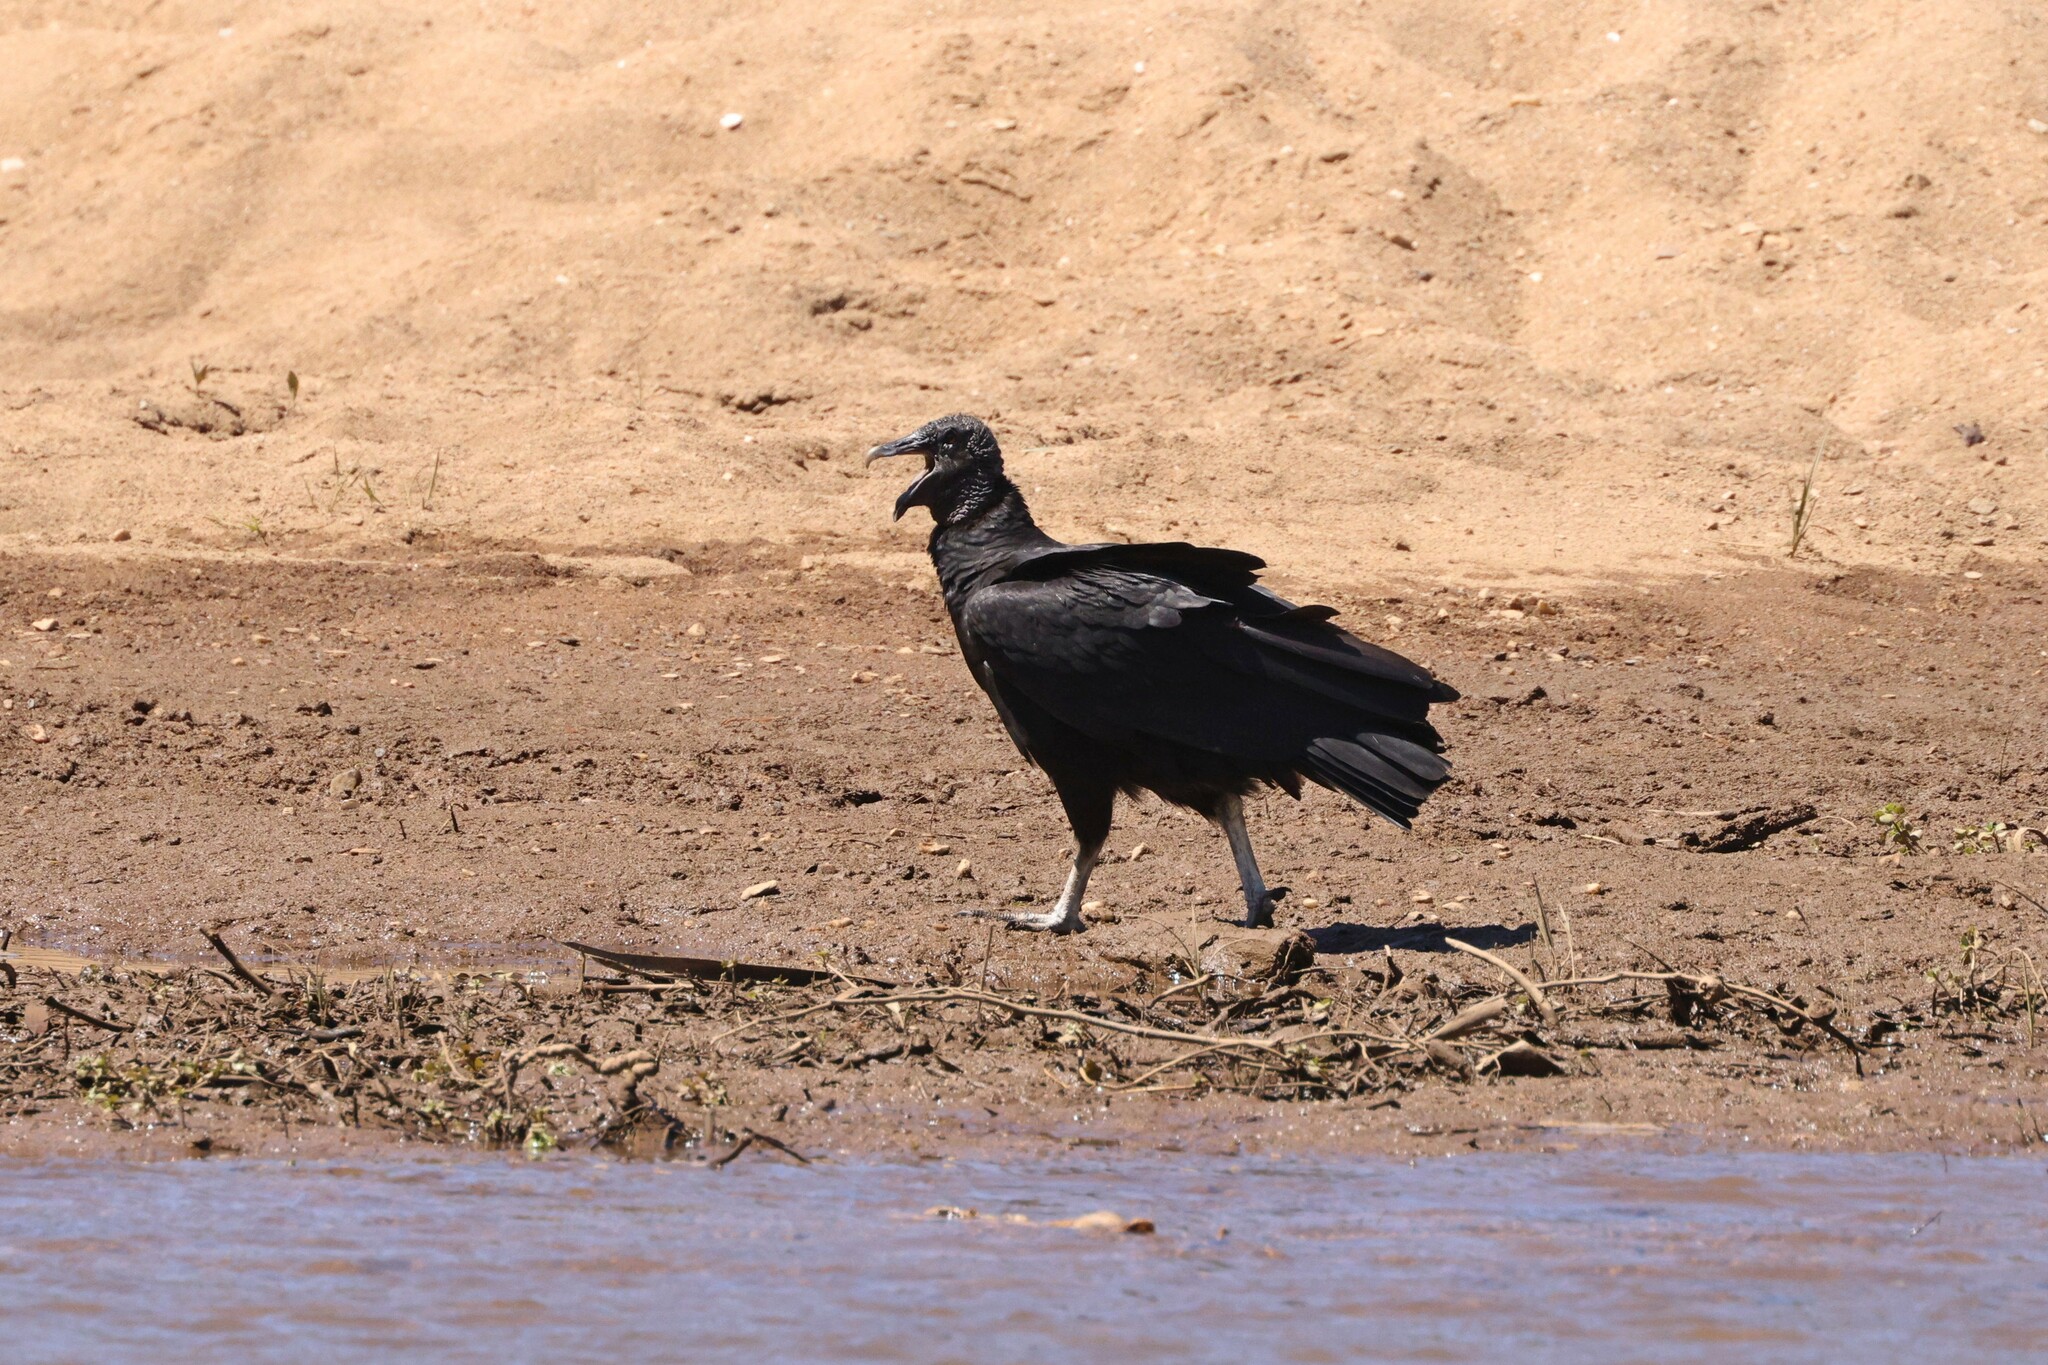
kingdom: Animalia
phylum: Chordata
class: Aves
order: Accipitriformes
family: Cathartidae
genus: Coragyps
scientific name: Coragyps atratus
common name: Black vulture
